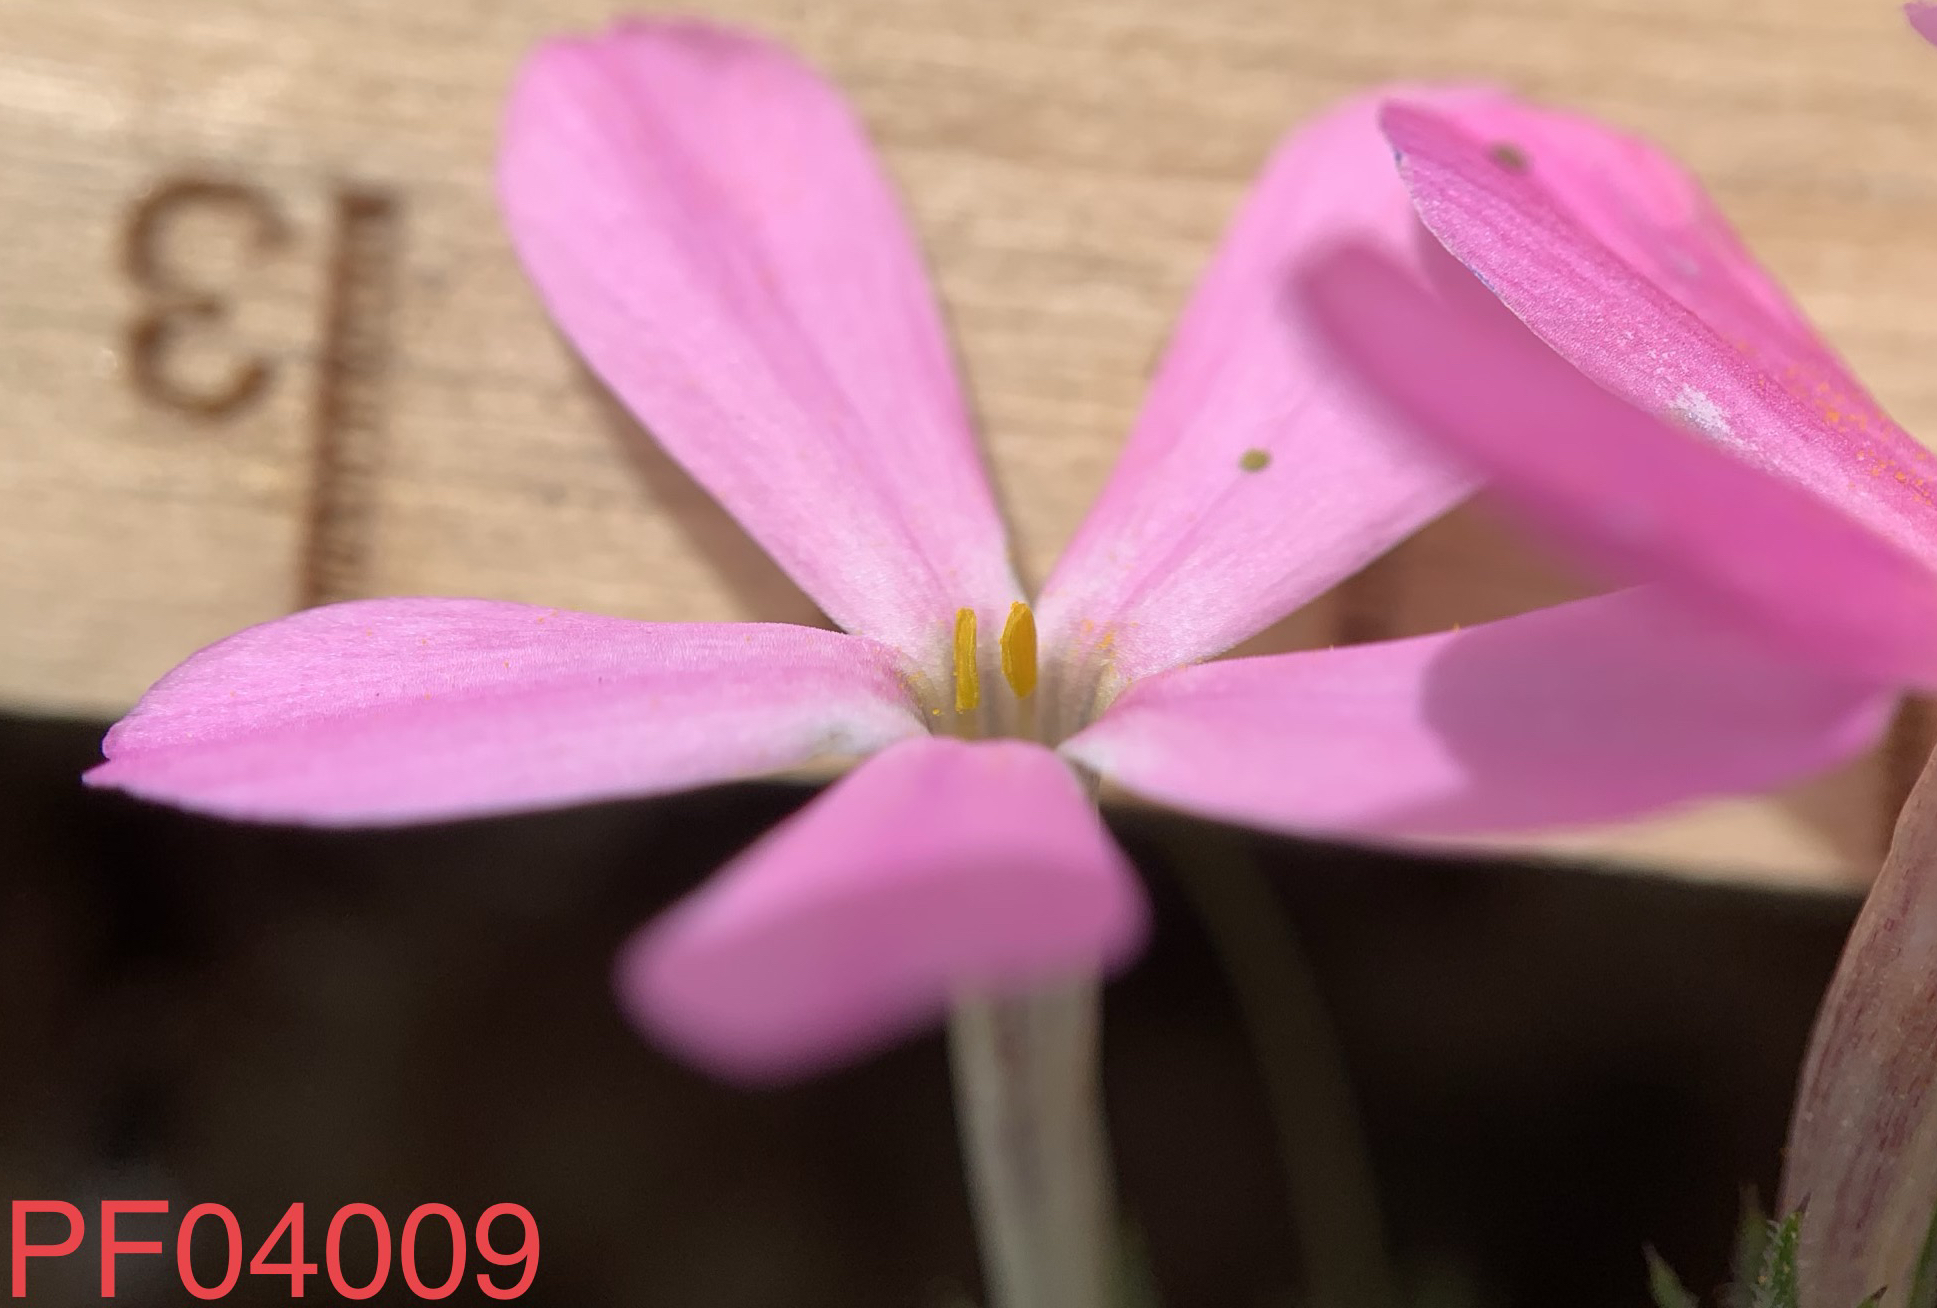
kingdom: Plantae
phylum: Tracheophyta
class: Magnoliopsida
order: Ericales
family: Polemoniaceae
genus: Phlox
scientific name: Phlox longifolia
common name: Longleaf phlox
